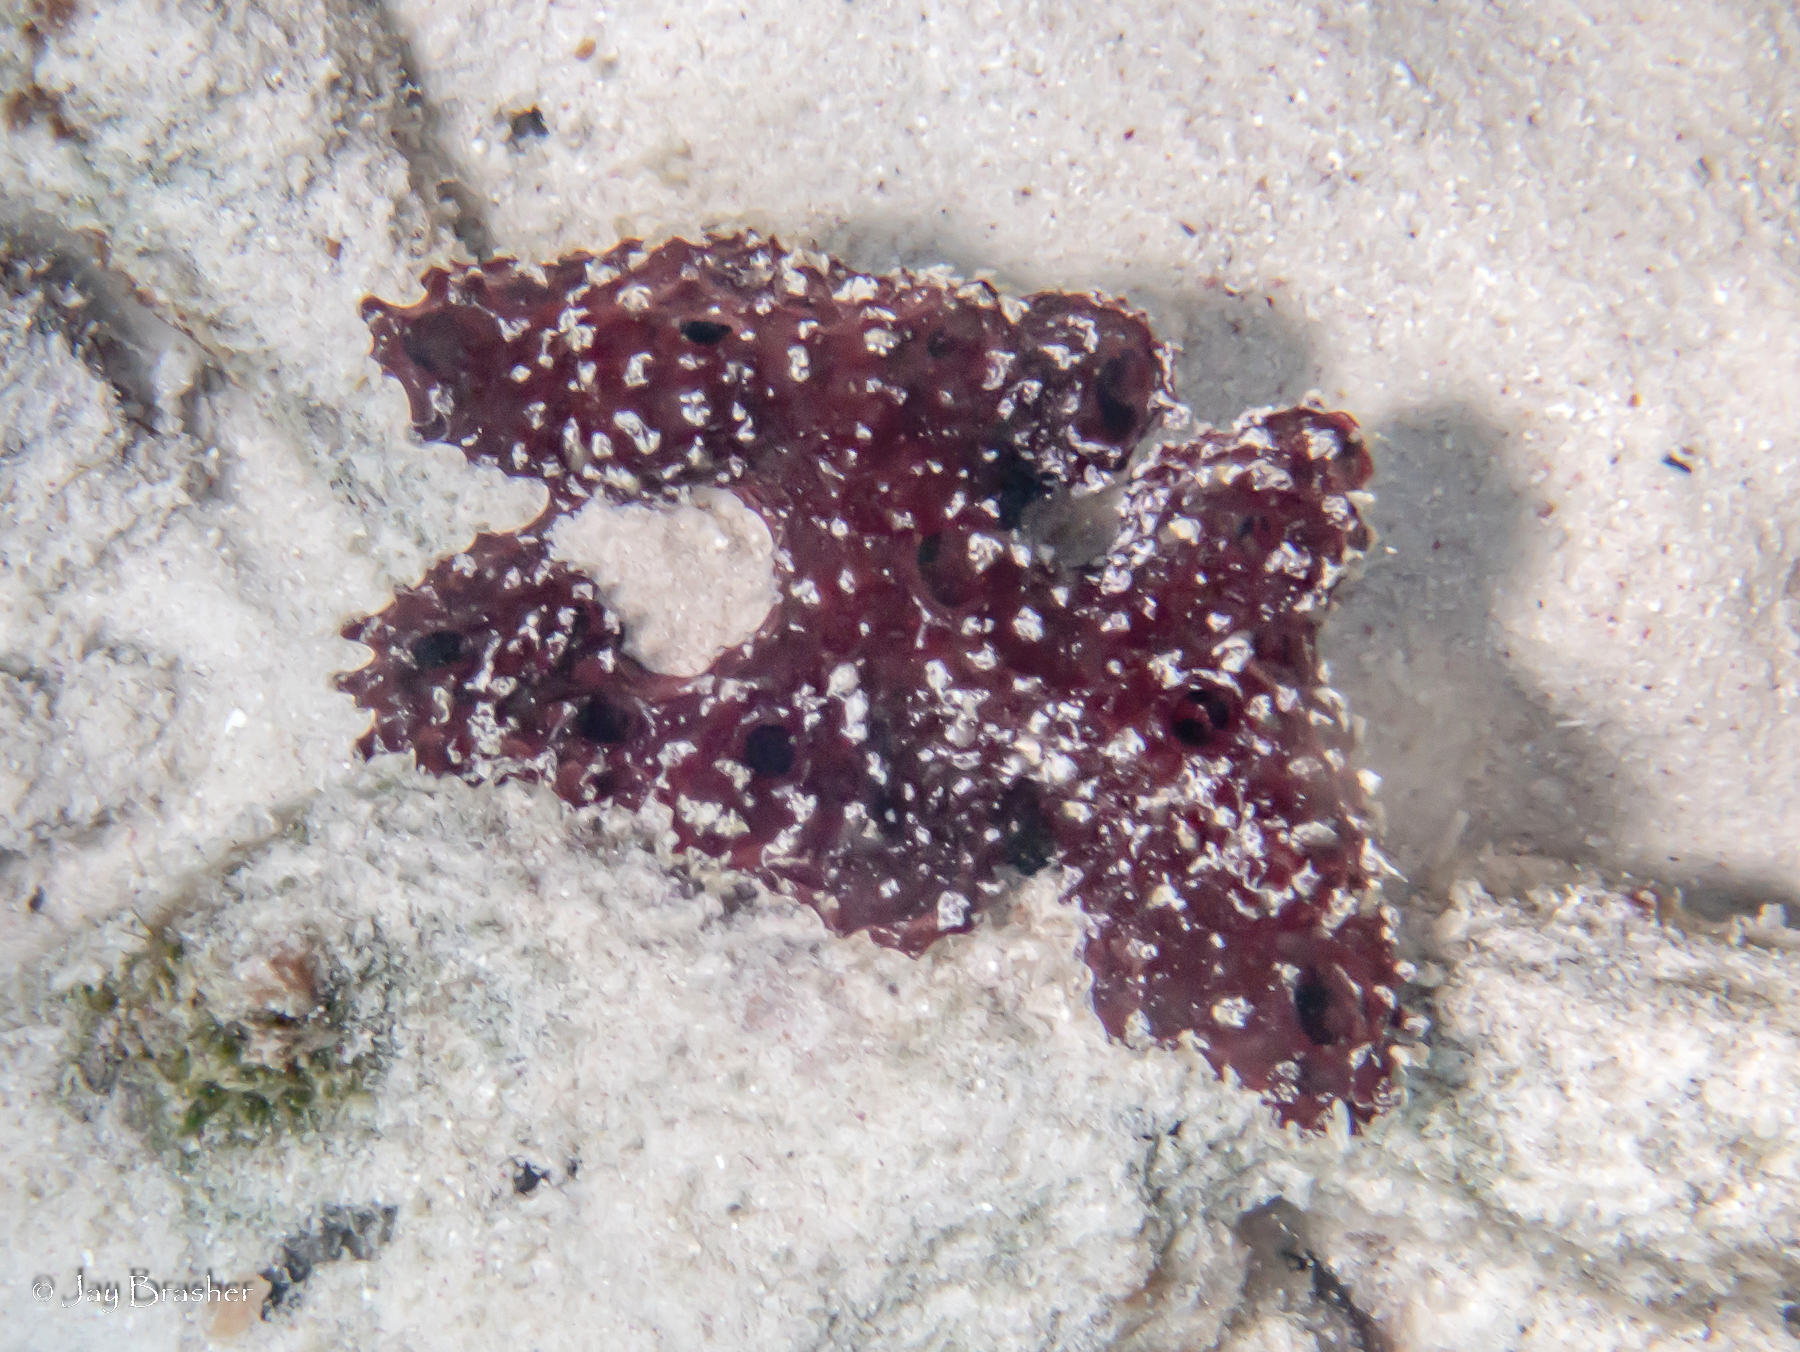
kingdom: Animalia
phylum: Porifera
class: Demospongiae
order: Poecilosclerida
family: Microcionidae
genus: Pandaros
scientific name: Pandaros acanthifolium
